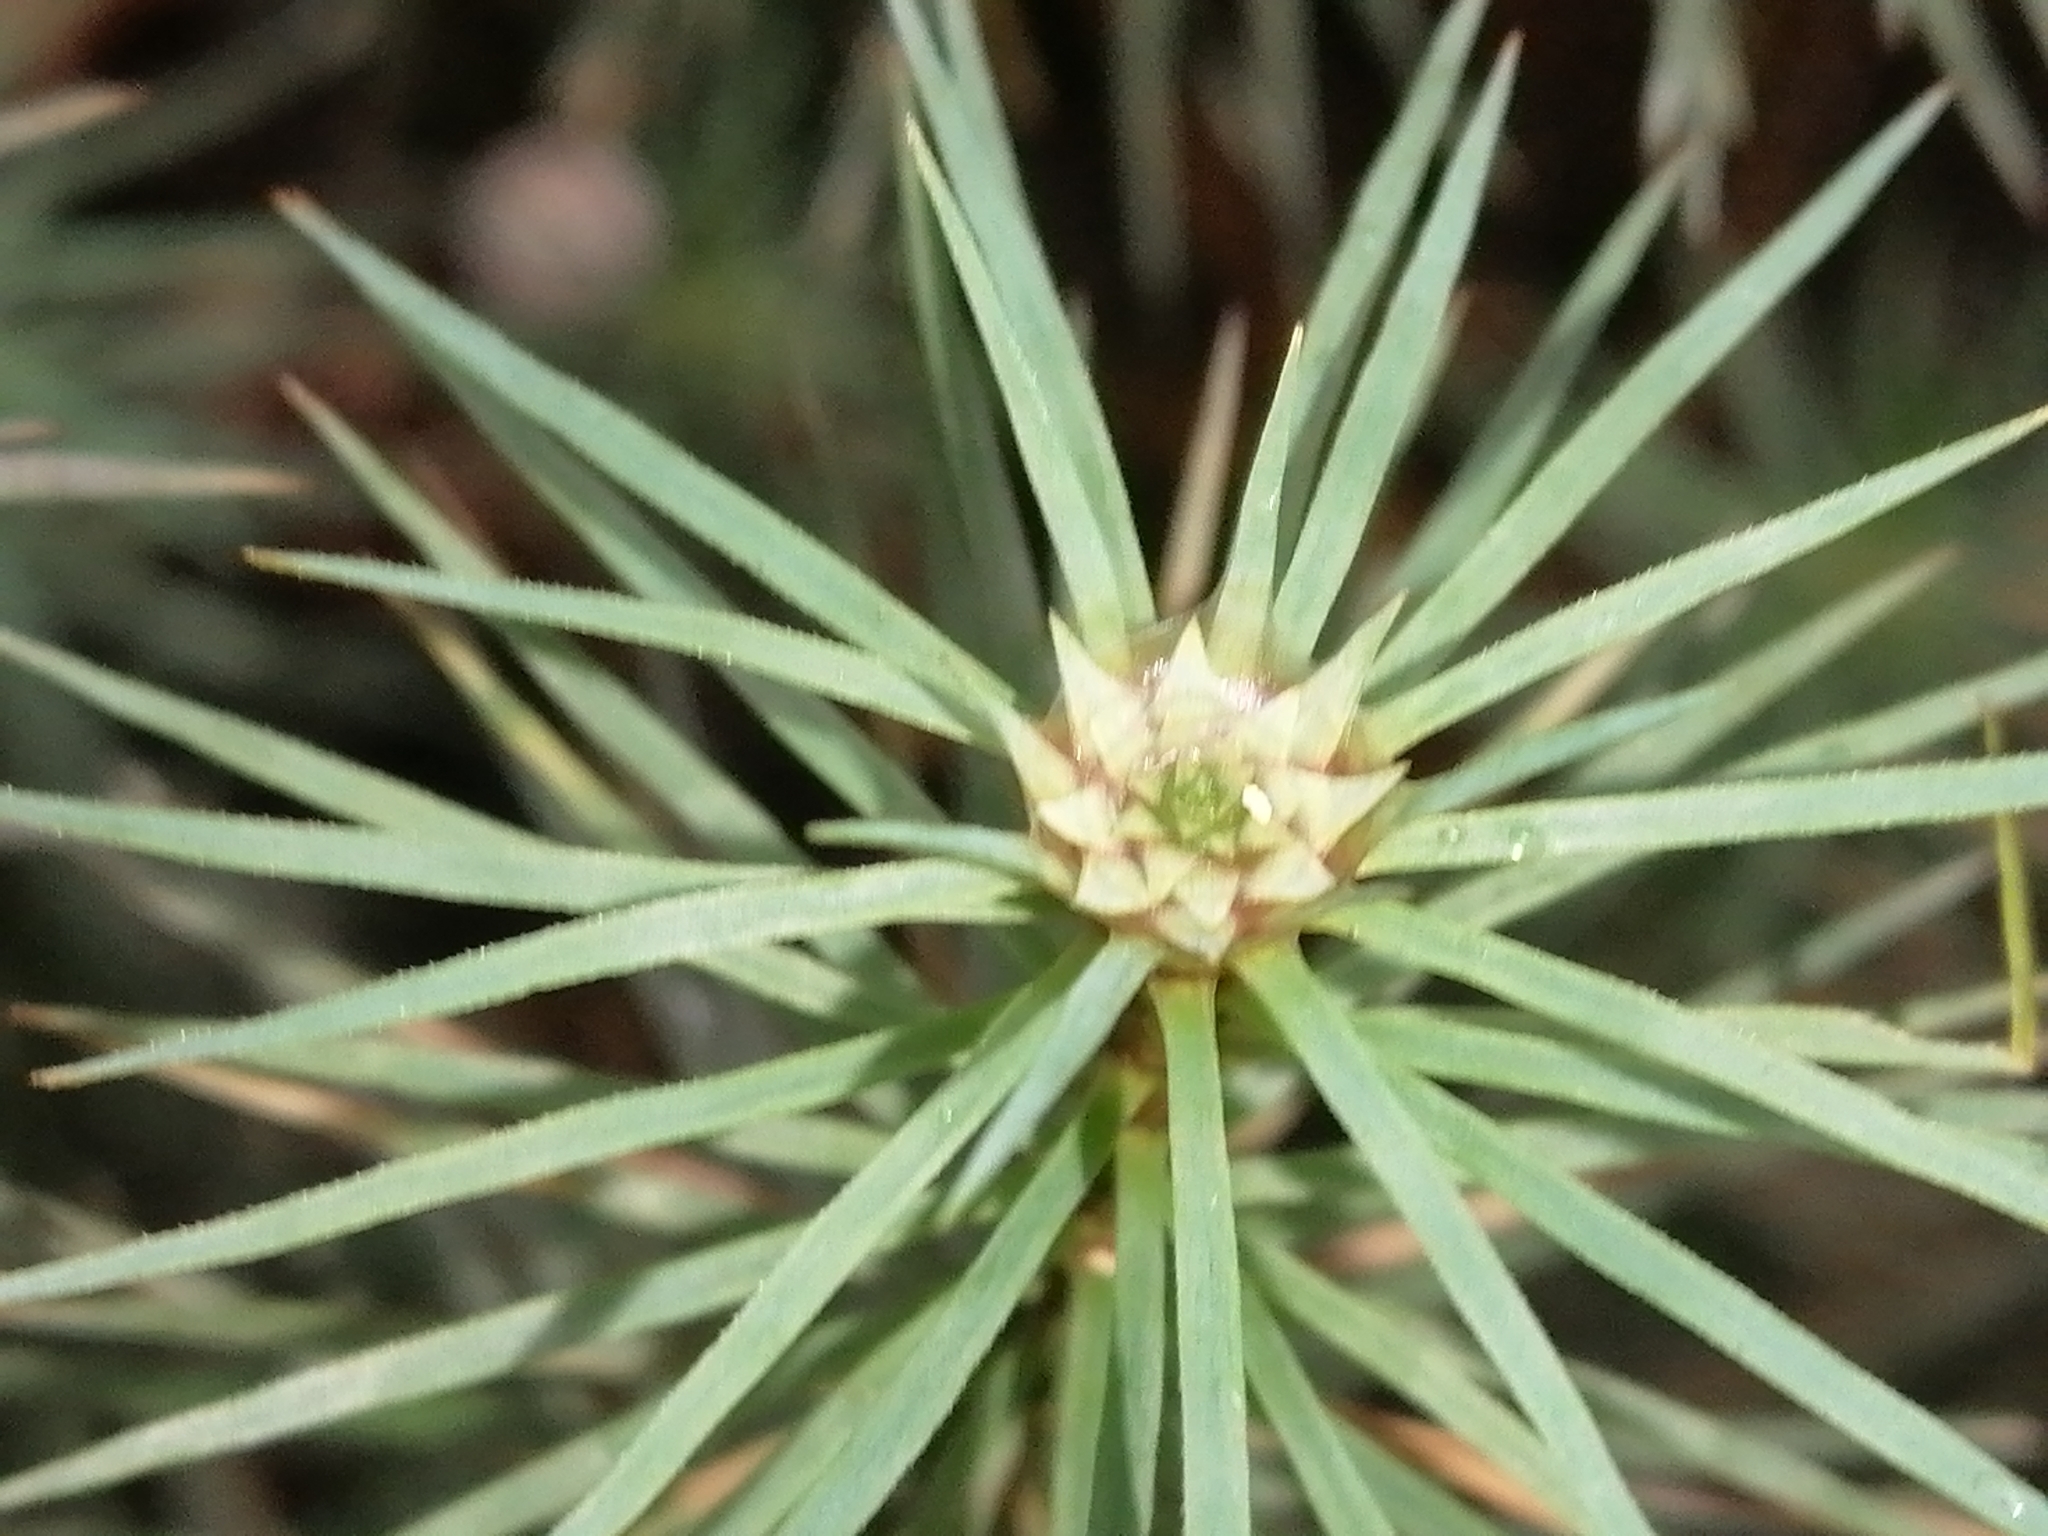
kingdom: Plantae
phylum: Bryophyta
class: Polytrichopsida
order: Polytrichales
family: Polytrichaceae
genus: Dawsonia
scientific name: Dawsonia superba
